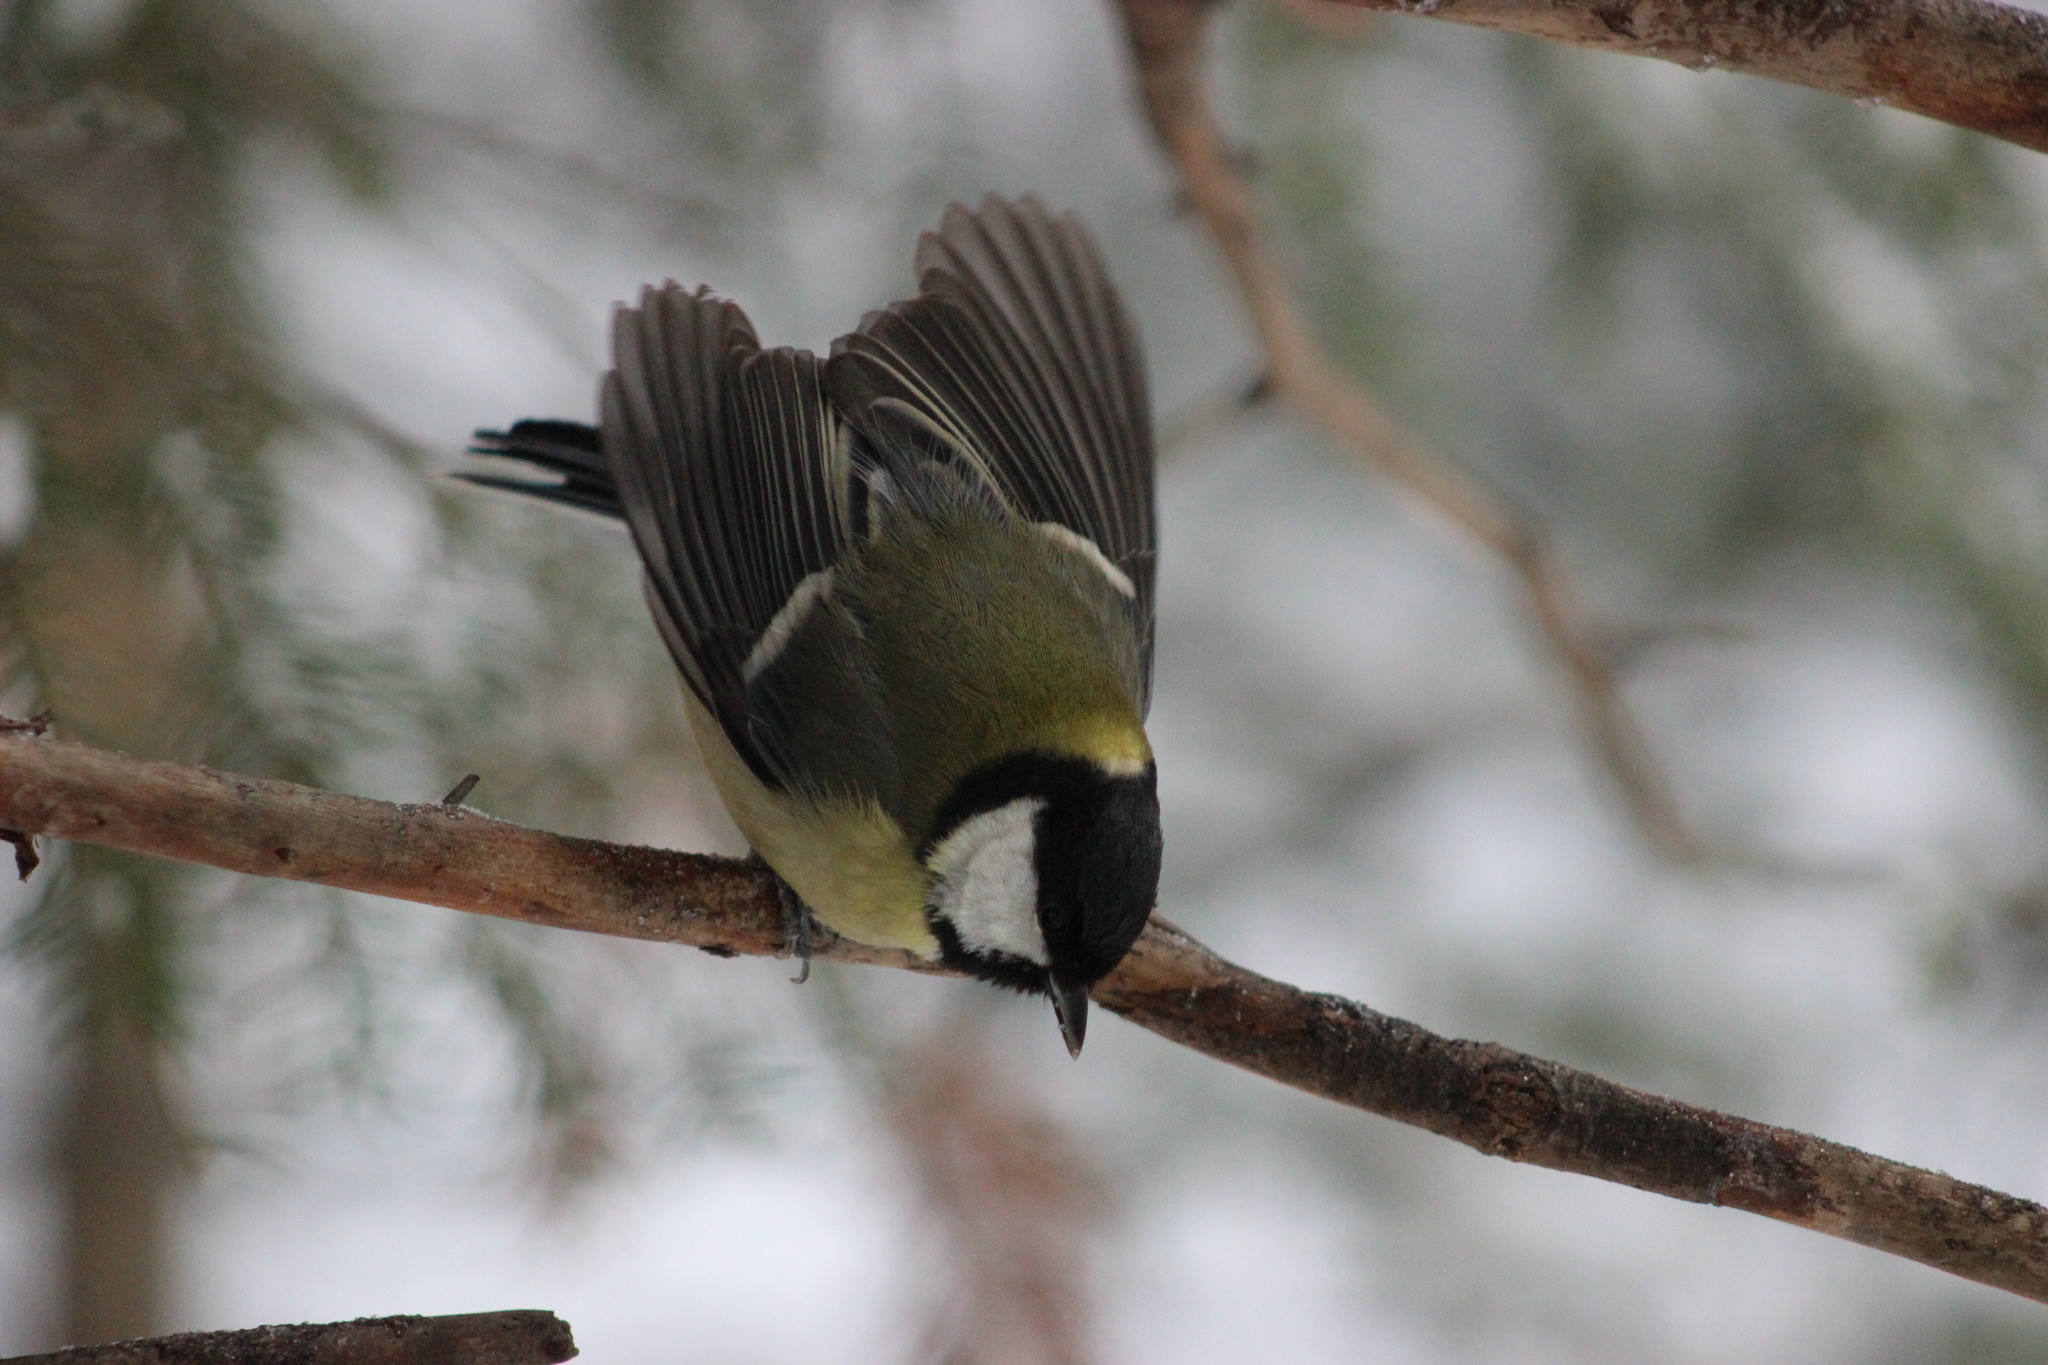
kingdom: Animalia
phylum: Chordata
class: Aves
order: Passeriformes
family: Paridae
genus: Parus
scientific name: Parus major
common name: Great tit
